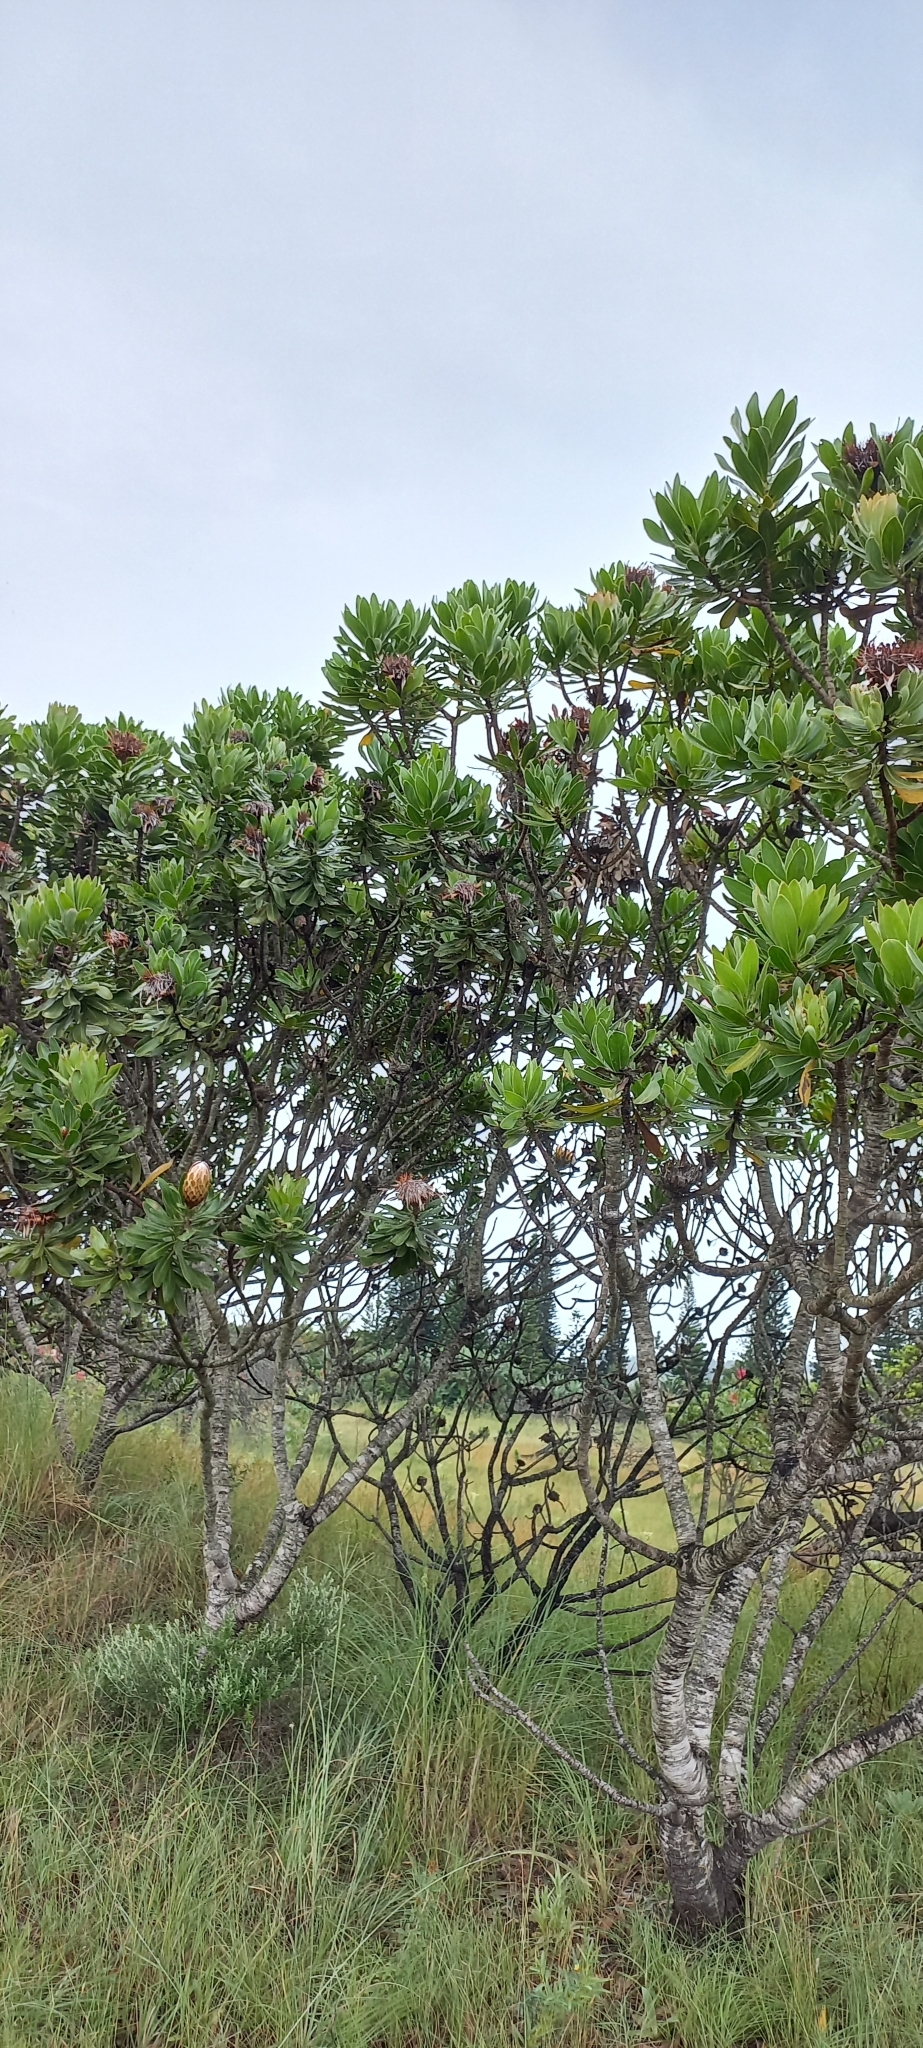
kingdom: Plantae
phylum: Tracheophyta
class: Magnoliopsida
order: Proteales
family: Proteaceae
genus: Protea
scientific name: Protea roupelliae
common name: Silver sugarbush
